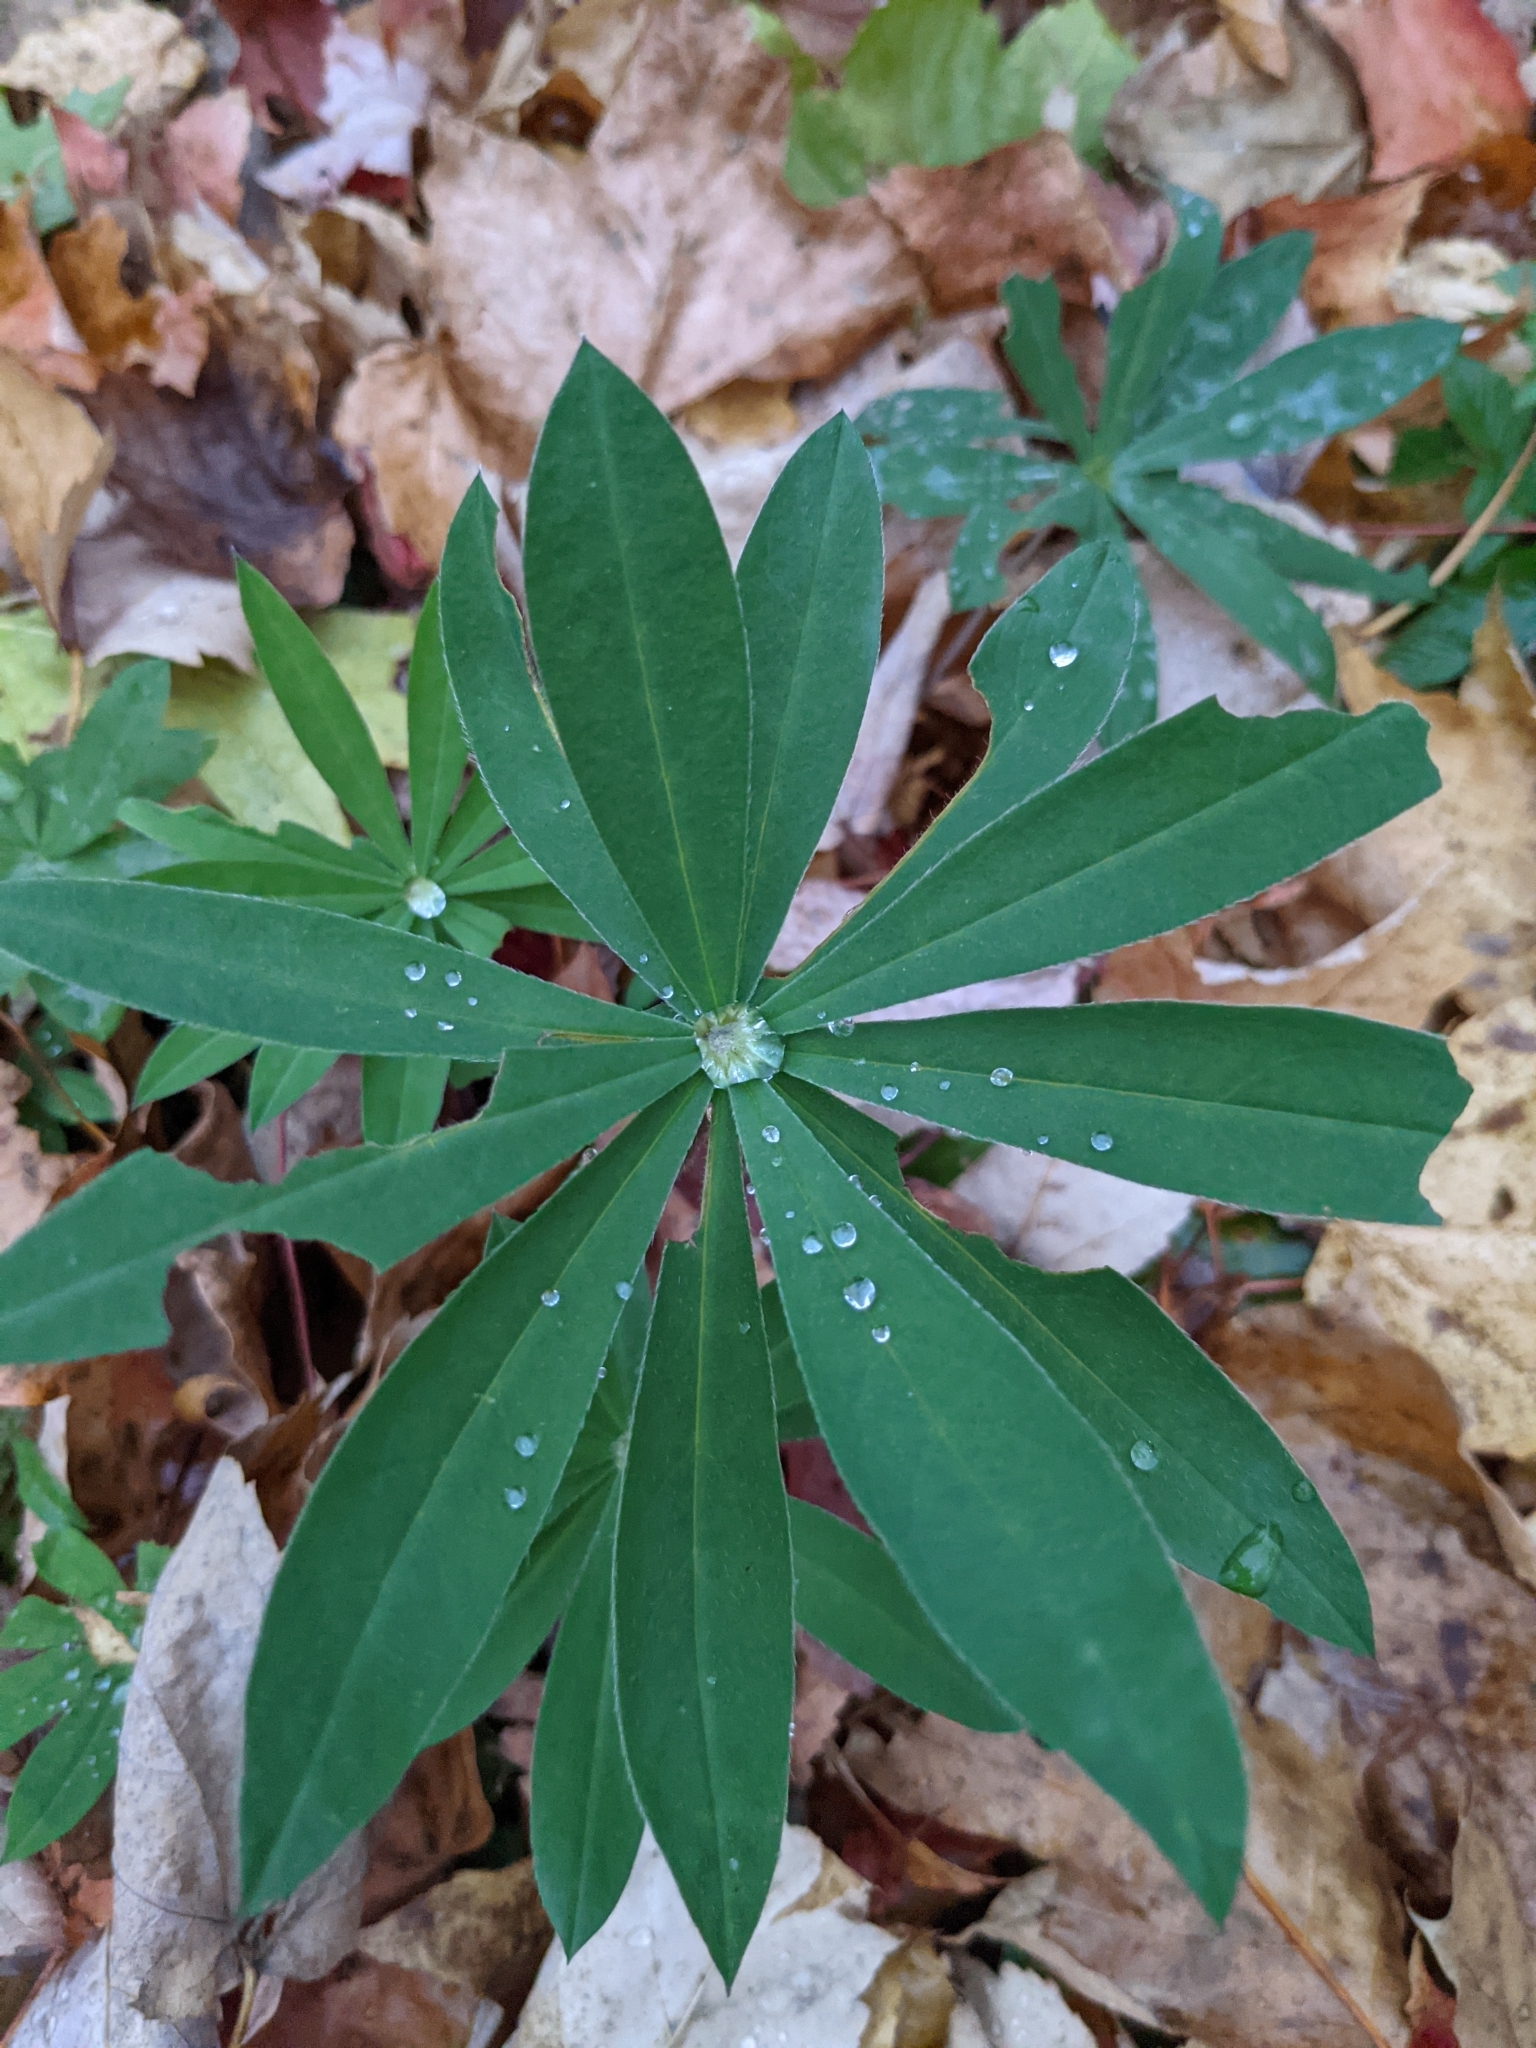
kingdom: Plantae
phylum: Tracheophyta
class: Magnoliopsida
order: Fabales
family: Fabaceae
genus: Lupinus
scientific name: Lupinus polyphyllus
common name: Garden lupin
